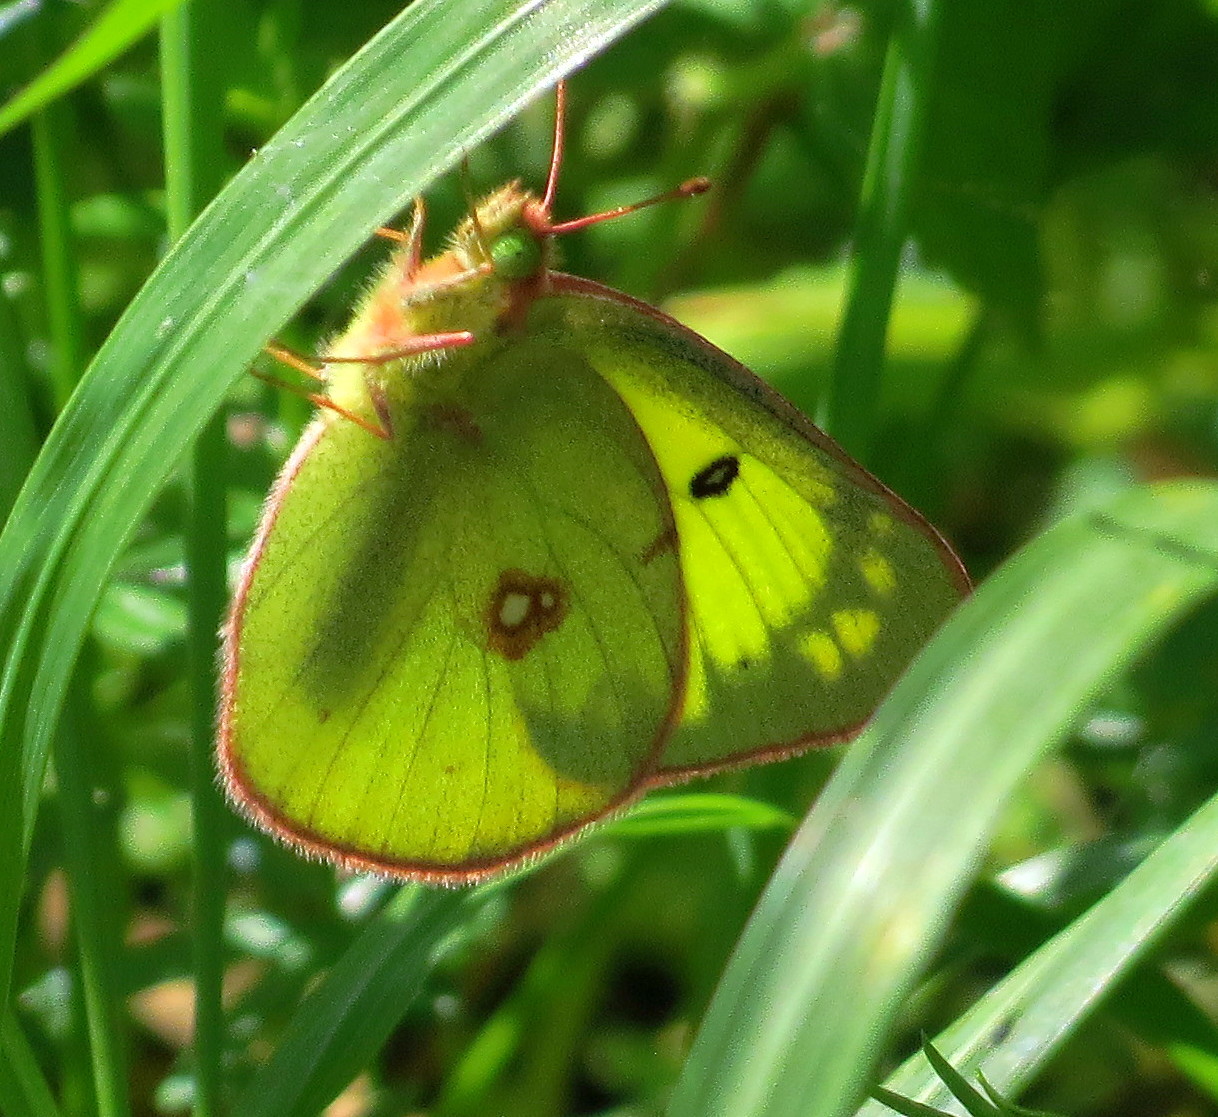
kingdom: Animalia
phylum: Arthropoda
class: Insecta
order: Lepidoptera
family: Pieridae
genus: Colias
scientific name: Colias philodice
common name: Clouded sulphur
